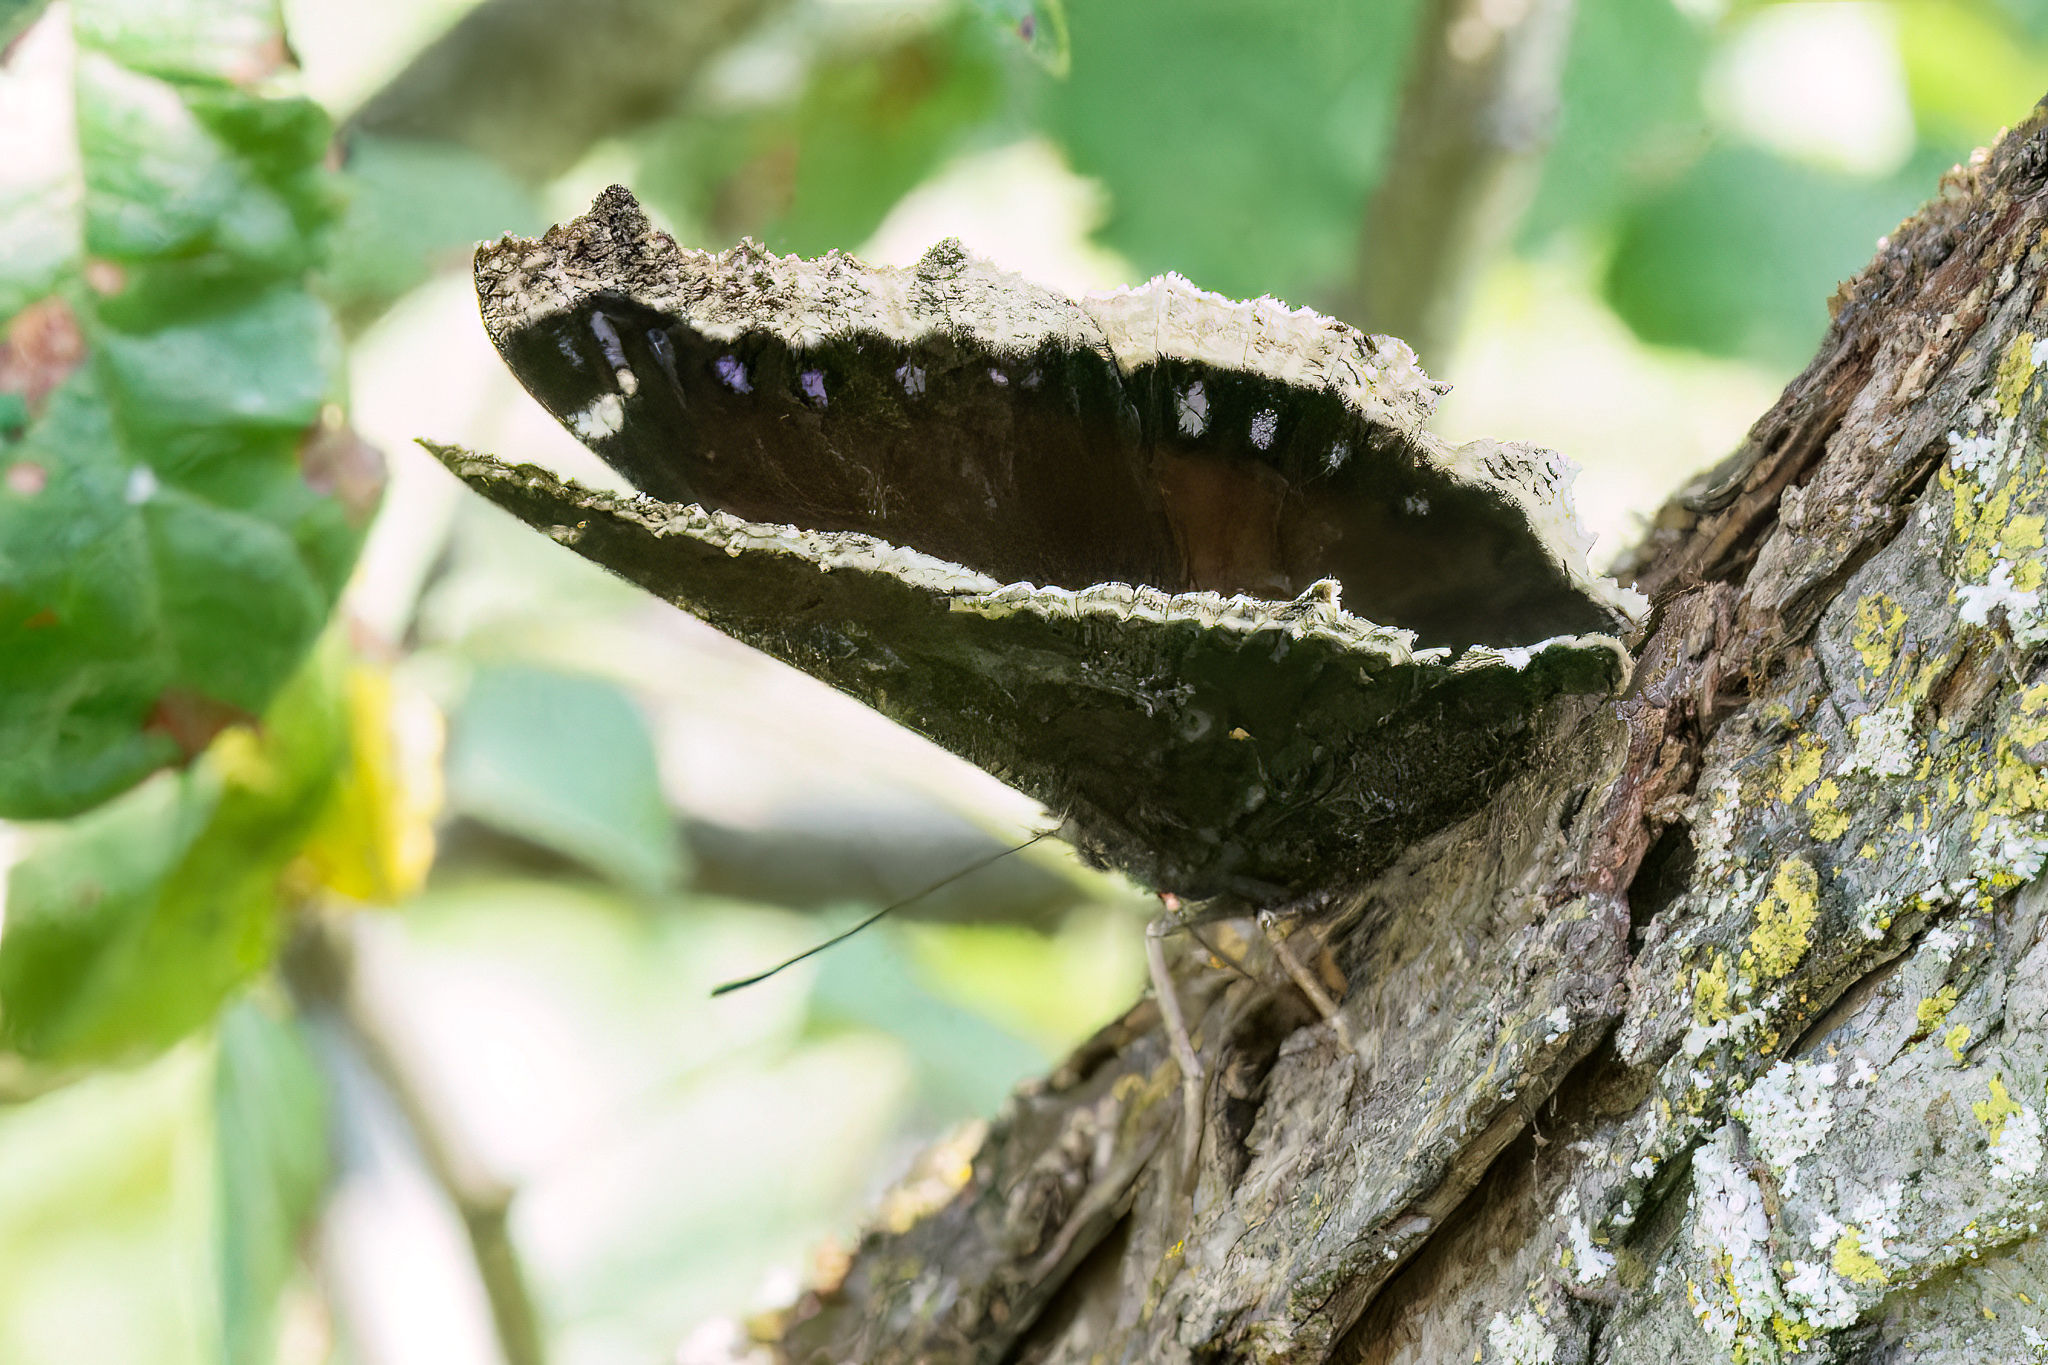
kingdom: Animalia
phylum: Arthropoda
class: Insecta
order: Lepidoptera
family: Nymphalidae
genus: Nymphalis
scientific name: Nymphalis antiopa
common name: Camberwell beauty
